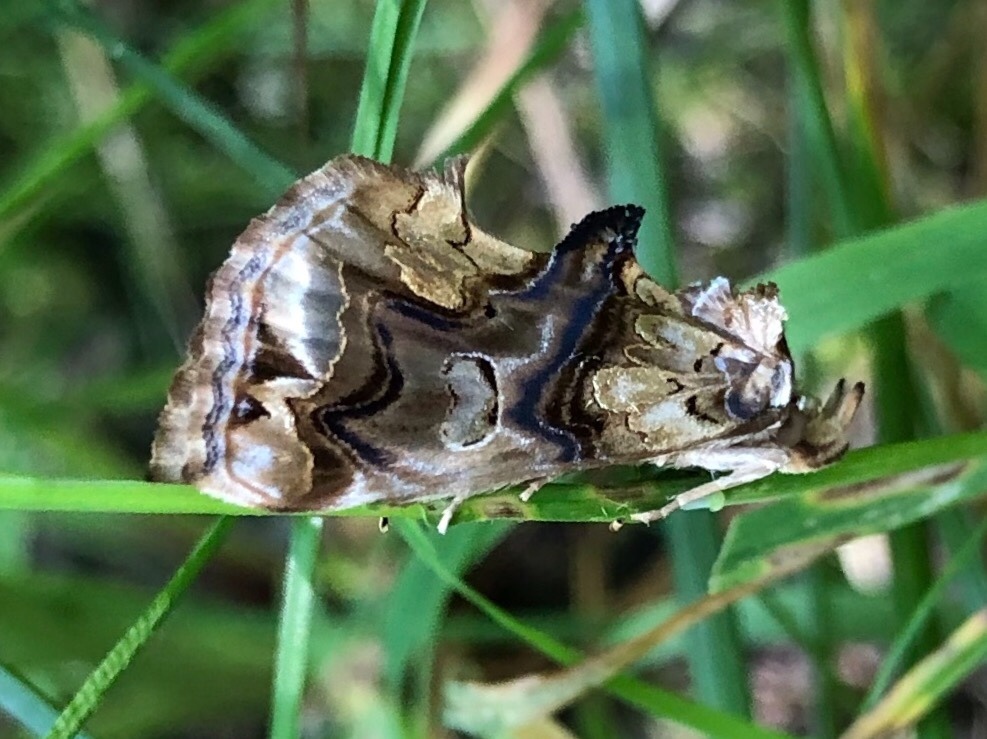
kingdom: Animalia
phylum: Arthropoda
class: Insecta
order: Lepidoptera
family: Erebidae
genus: Plusiodonta
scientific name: Plusiodonta compressipalpis
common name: Moonseed moth
